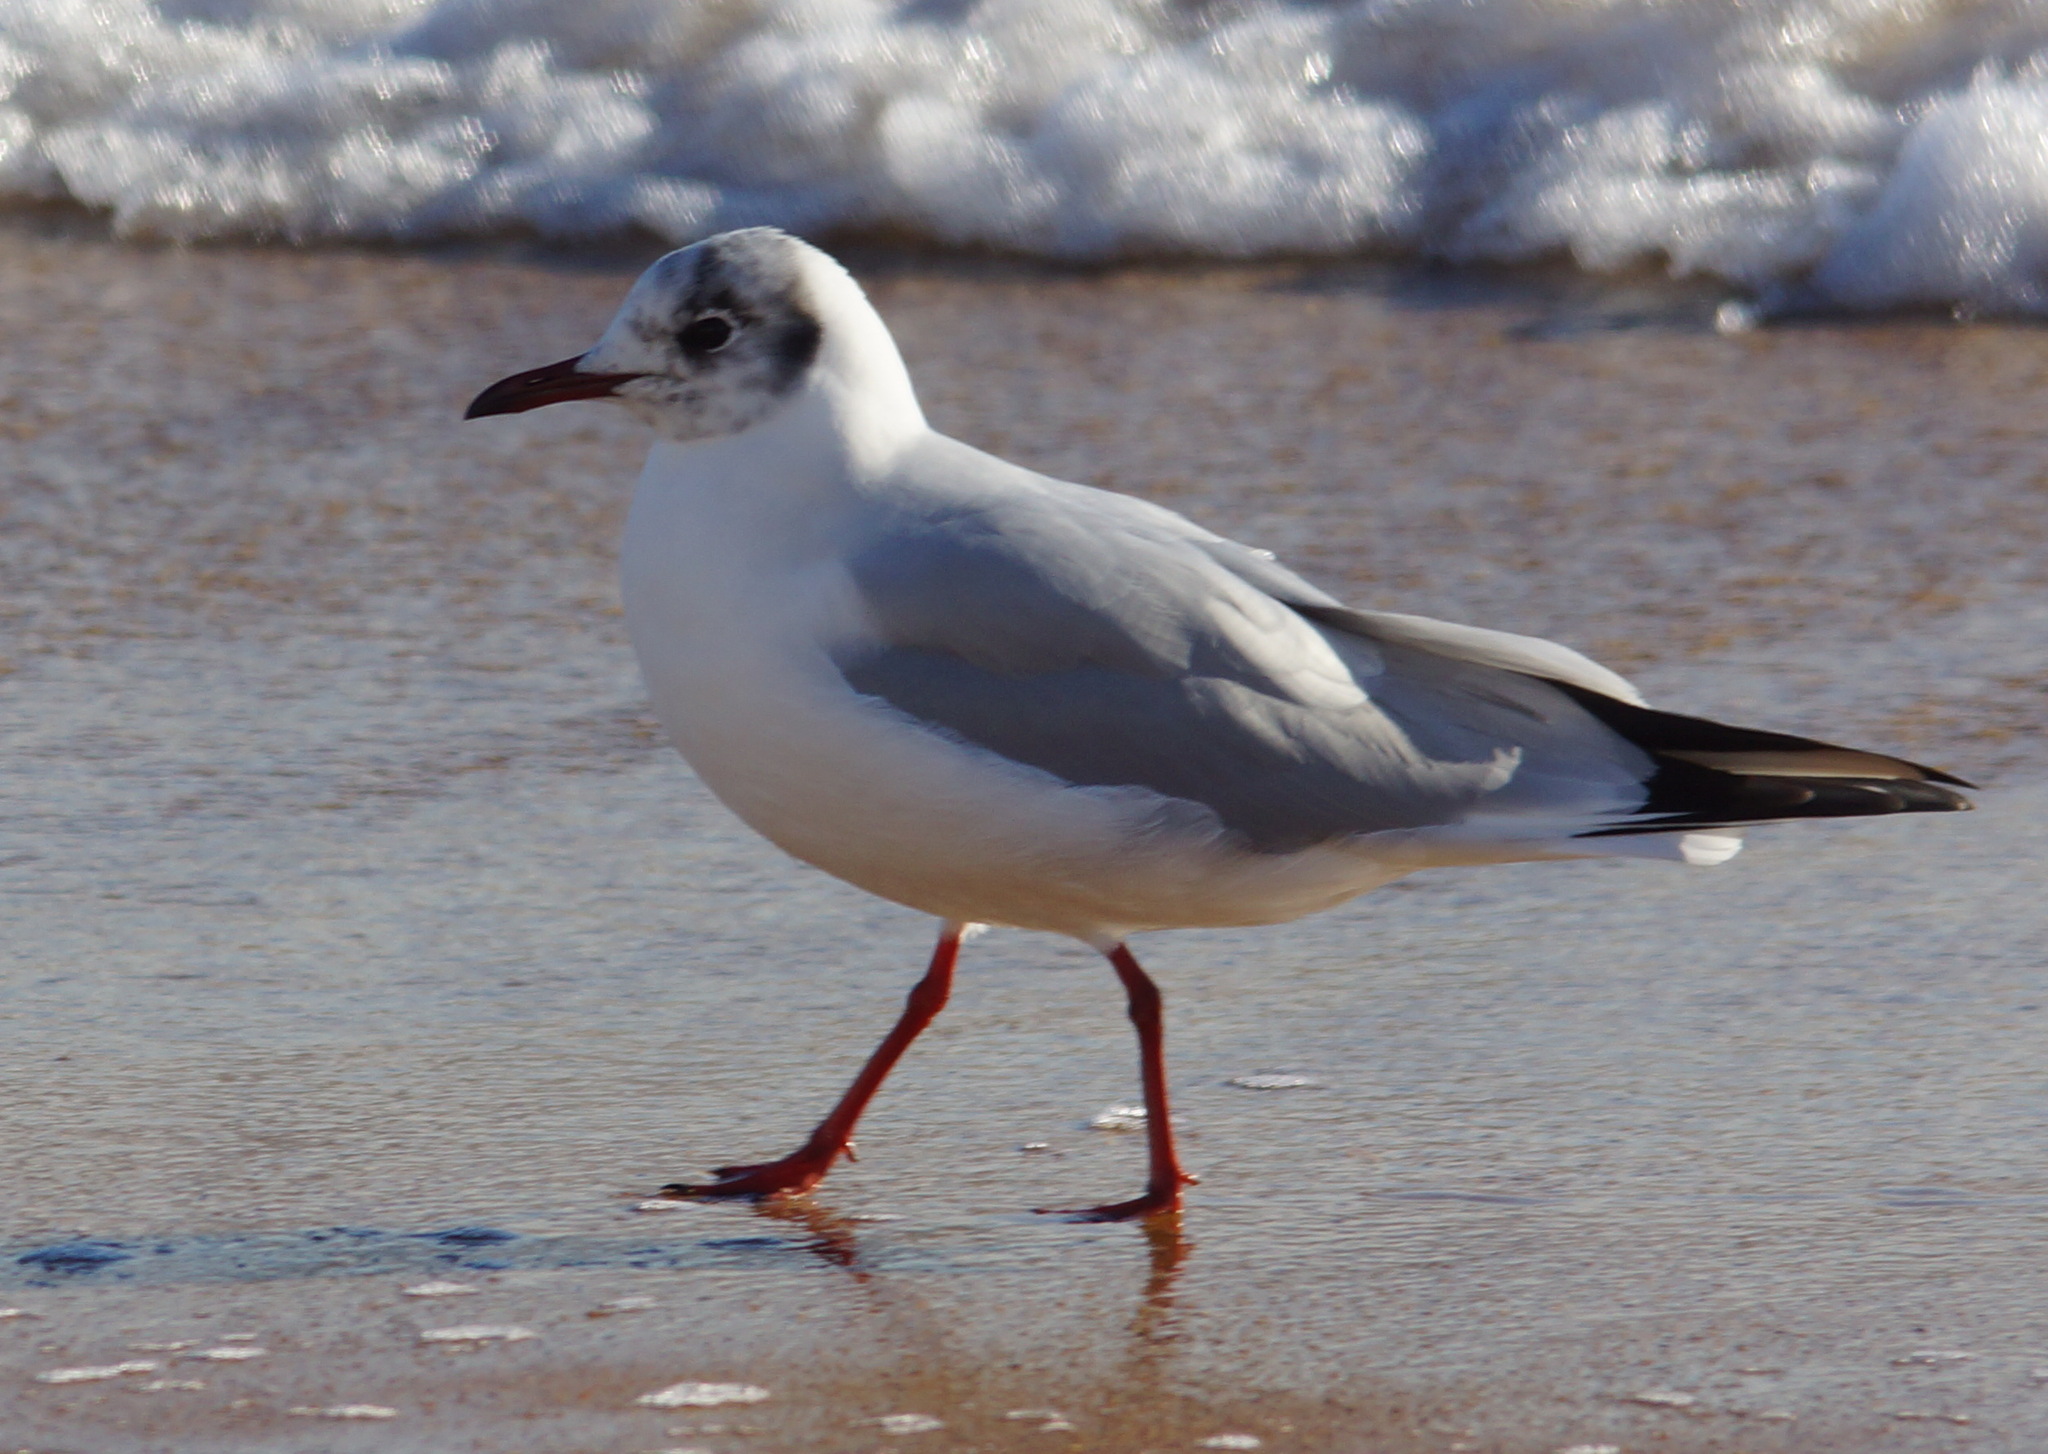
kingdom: Animalia
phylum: Chordata
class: Aves
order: Charadriiformes
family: Laridae
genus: Chroicocephalus
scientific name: Chroicocephalus ridibundus
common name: Black-headed gull
